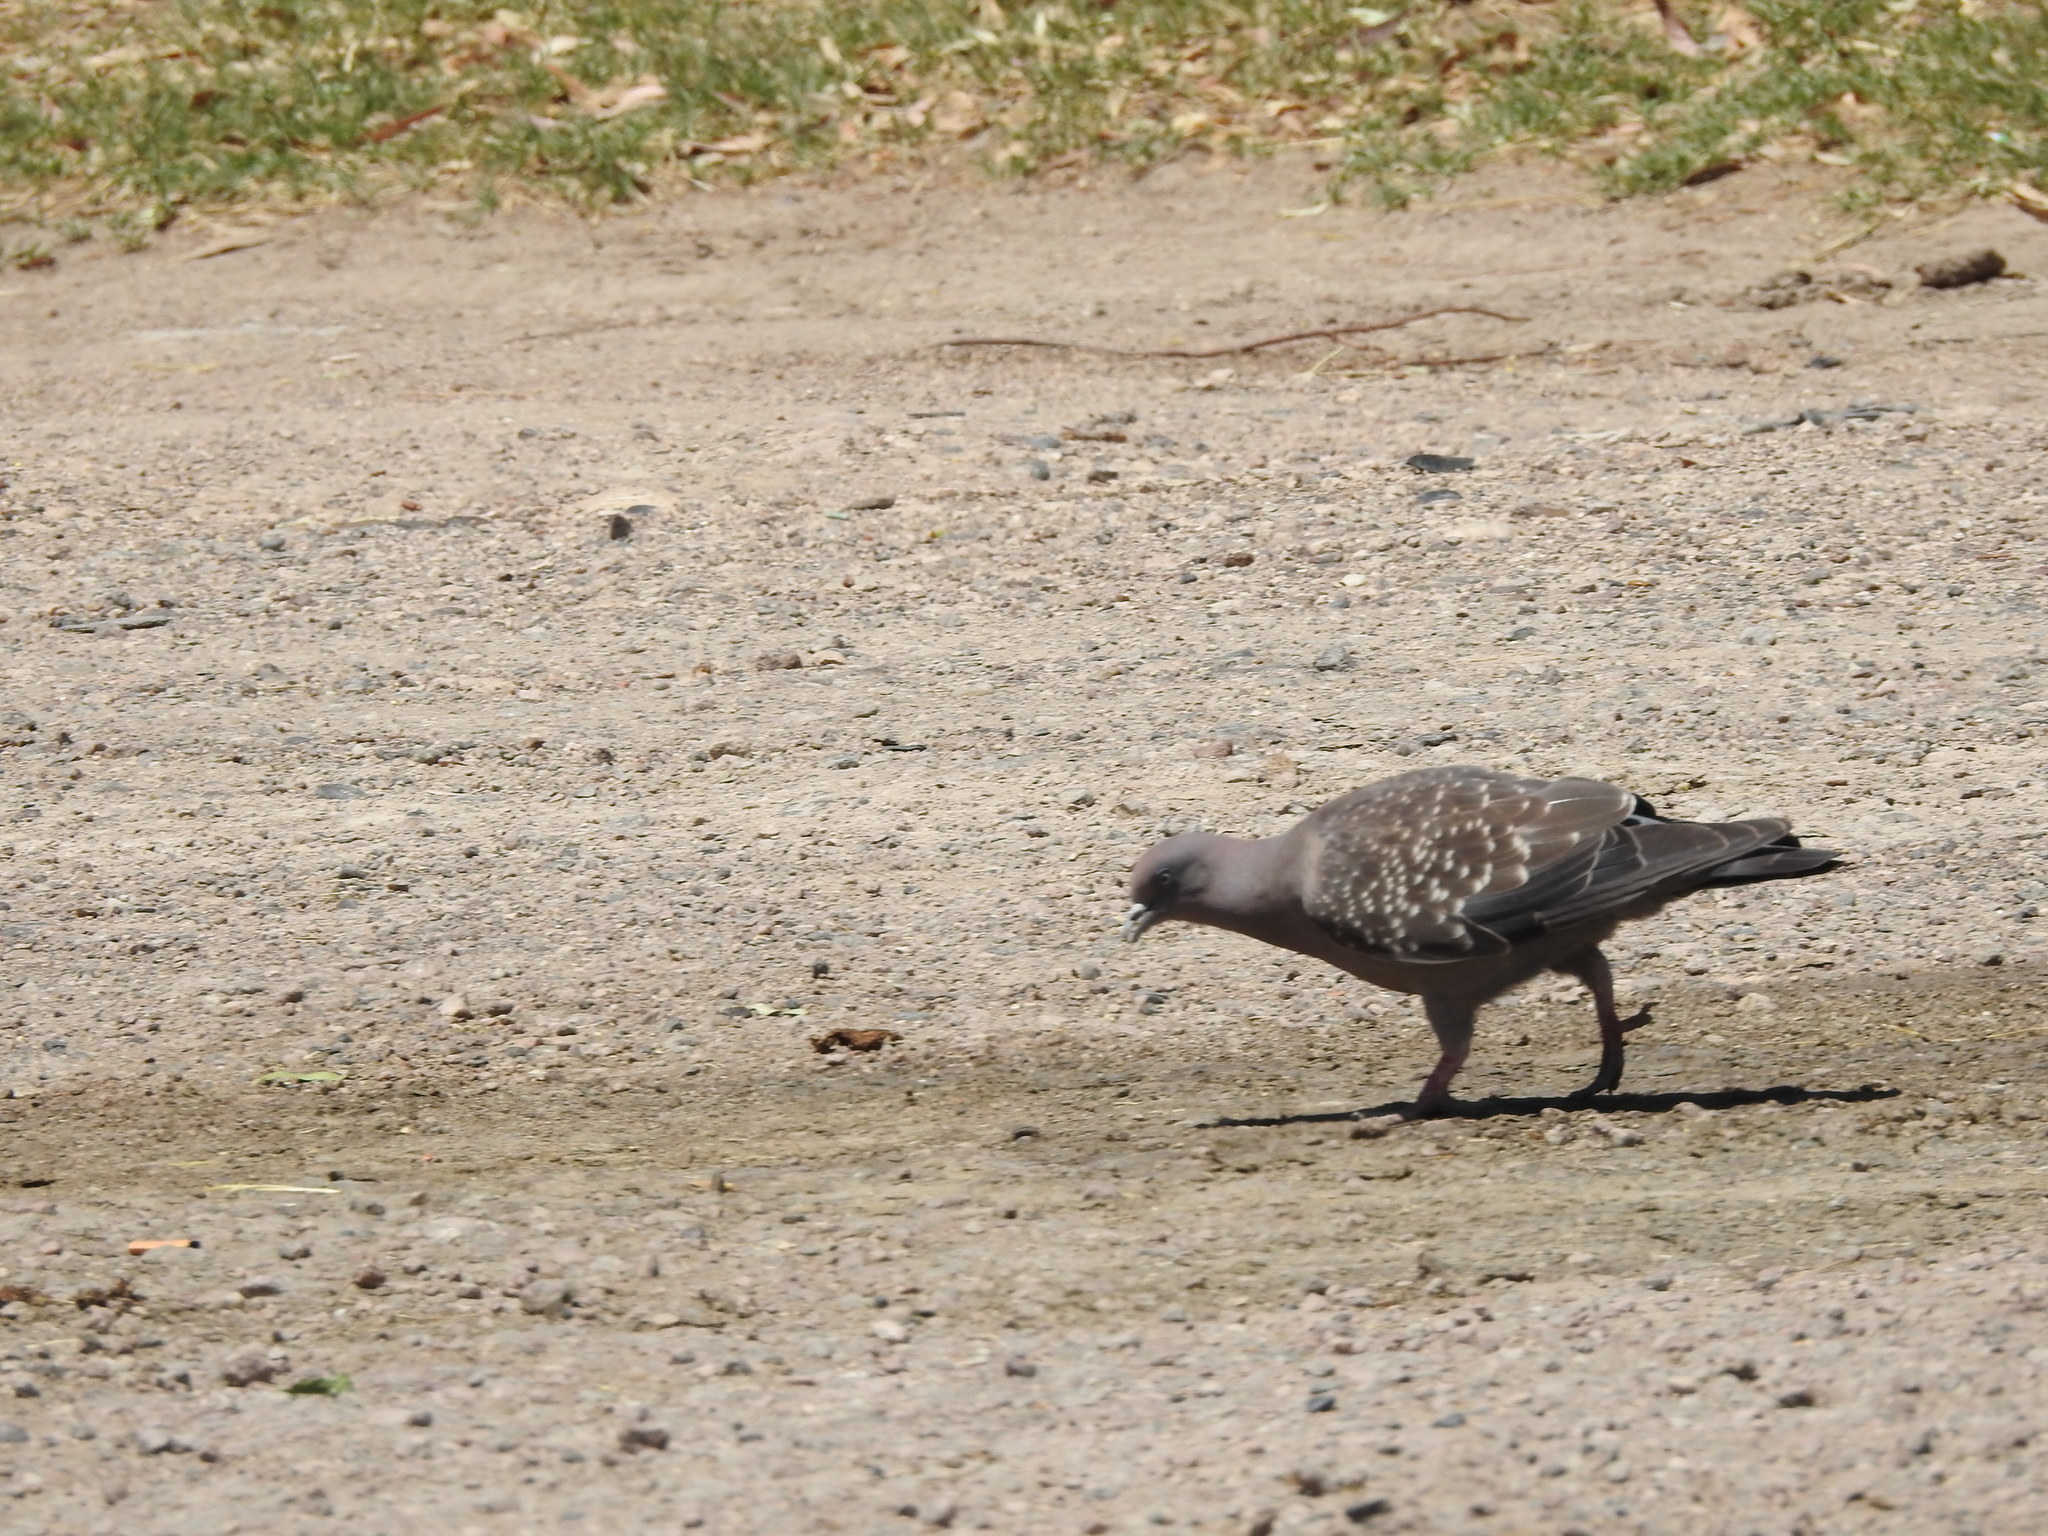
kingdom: Animalia
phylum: Chordata
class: Aves
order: Columbiformes
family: Columbidae
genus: Patagioenas
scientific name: Patagioenas maculosa
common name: Spot-winged pigeon
